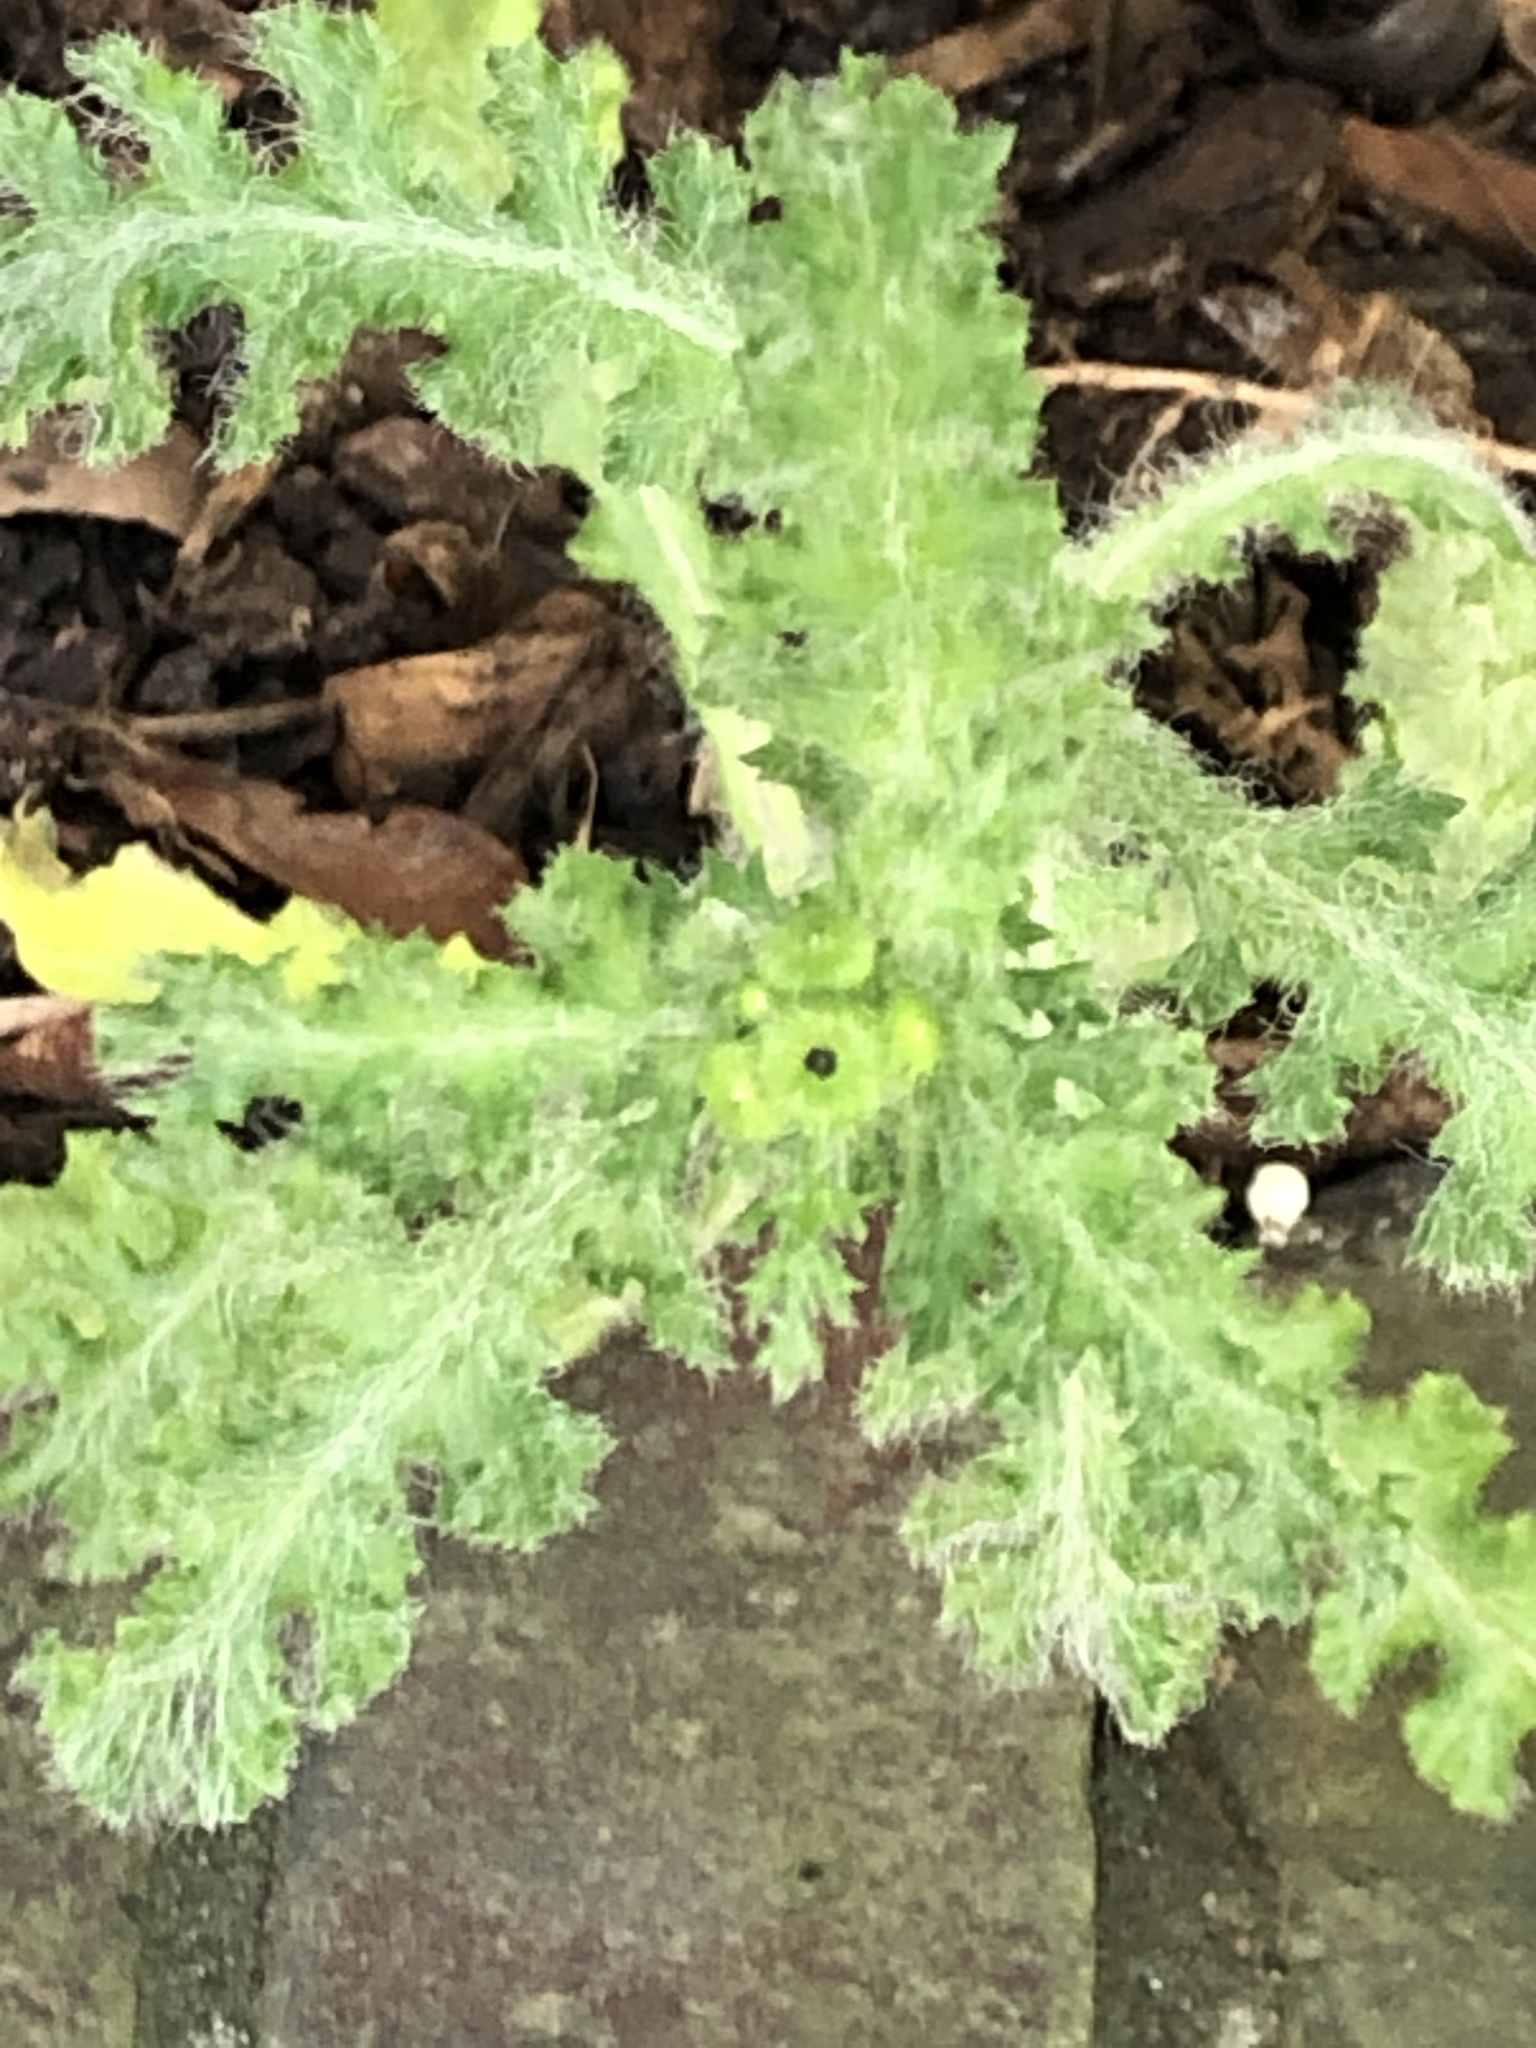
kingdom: Plantae
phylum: Tracheophyta
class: Magnoliopsida
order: Asterales
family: Asteraceae
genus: Senecio
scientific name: Senecio vernalis
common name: Eastern groundsel
